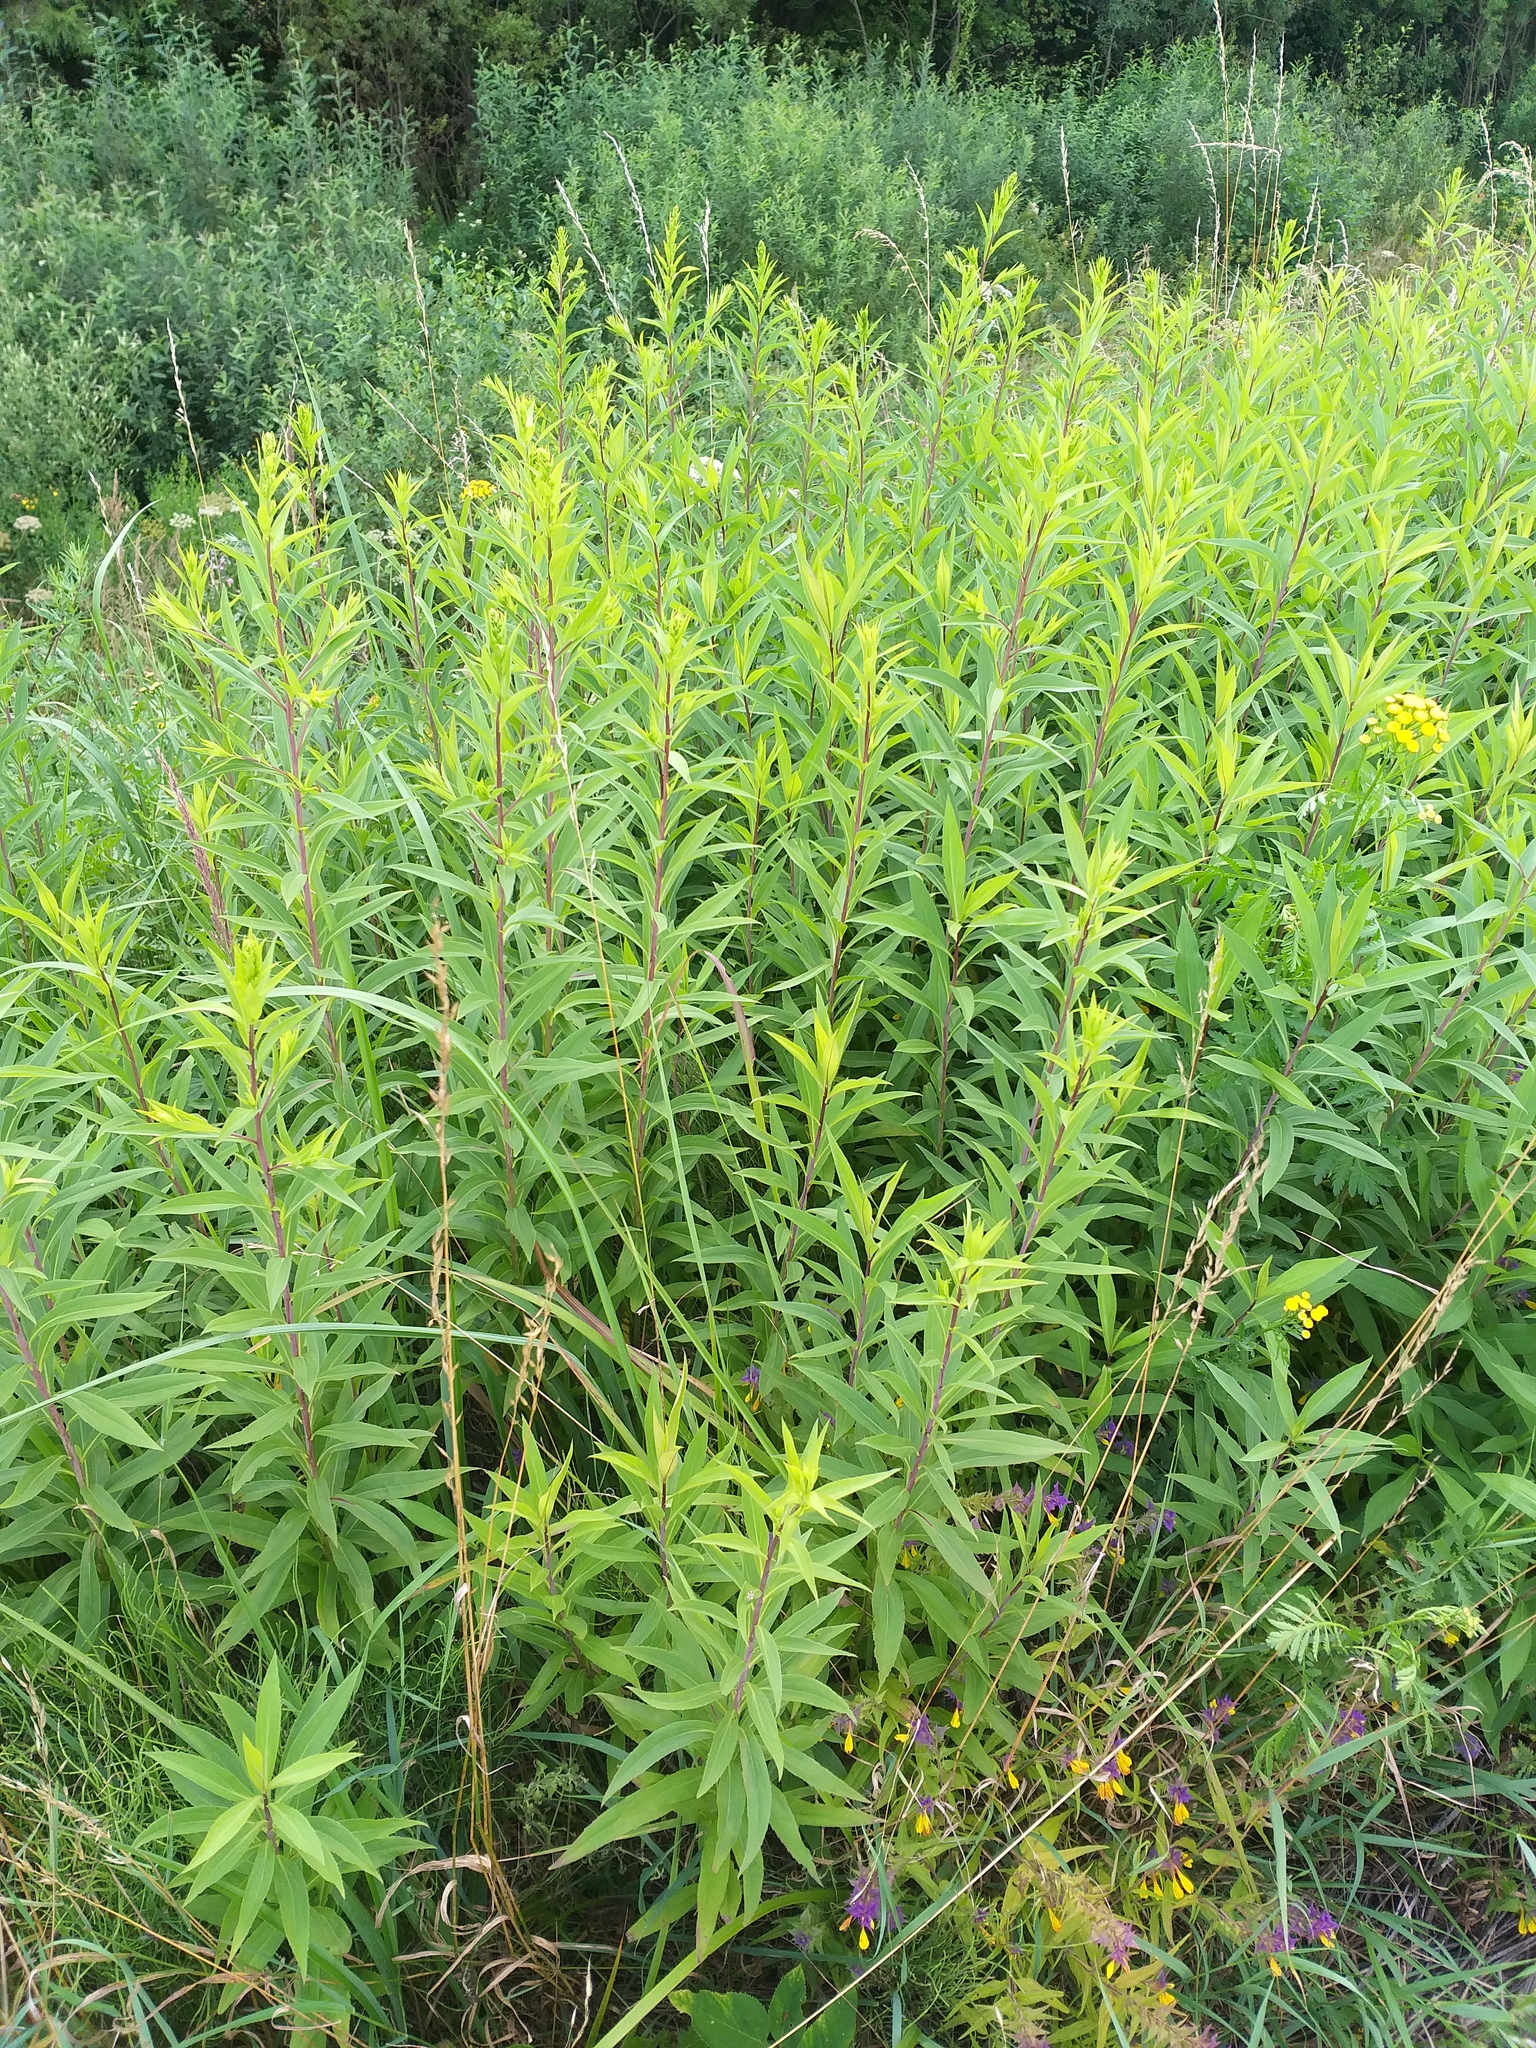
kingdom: Plantae
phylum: Tracheophyta
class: Magnoliopsida
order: Asterales
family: Asteraceae
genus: Solidago
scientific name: Solidago gigantea
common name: Giant goldenrod
